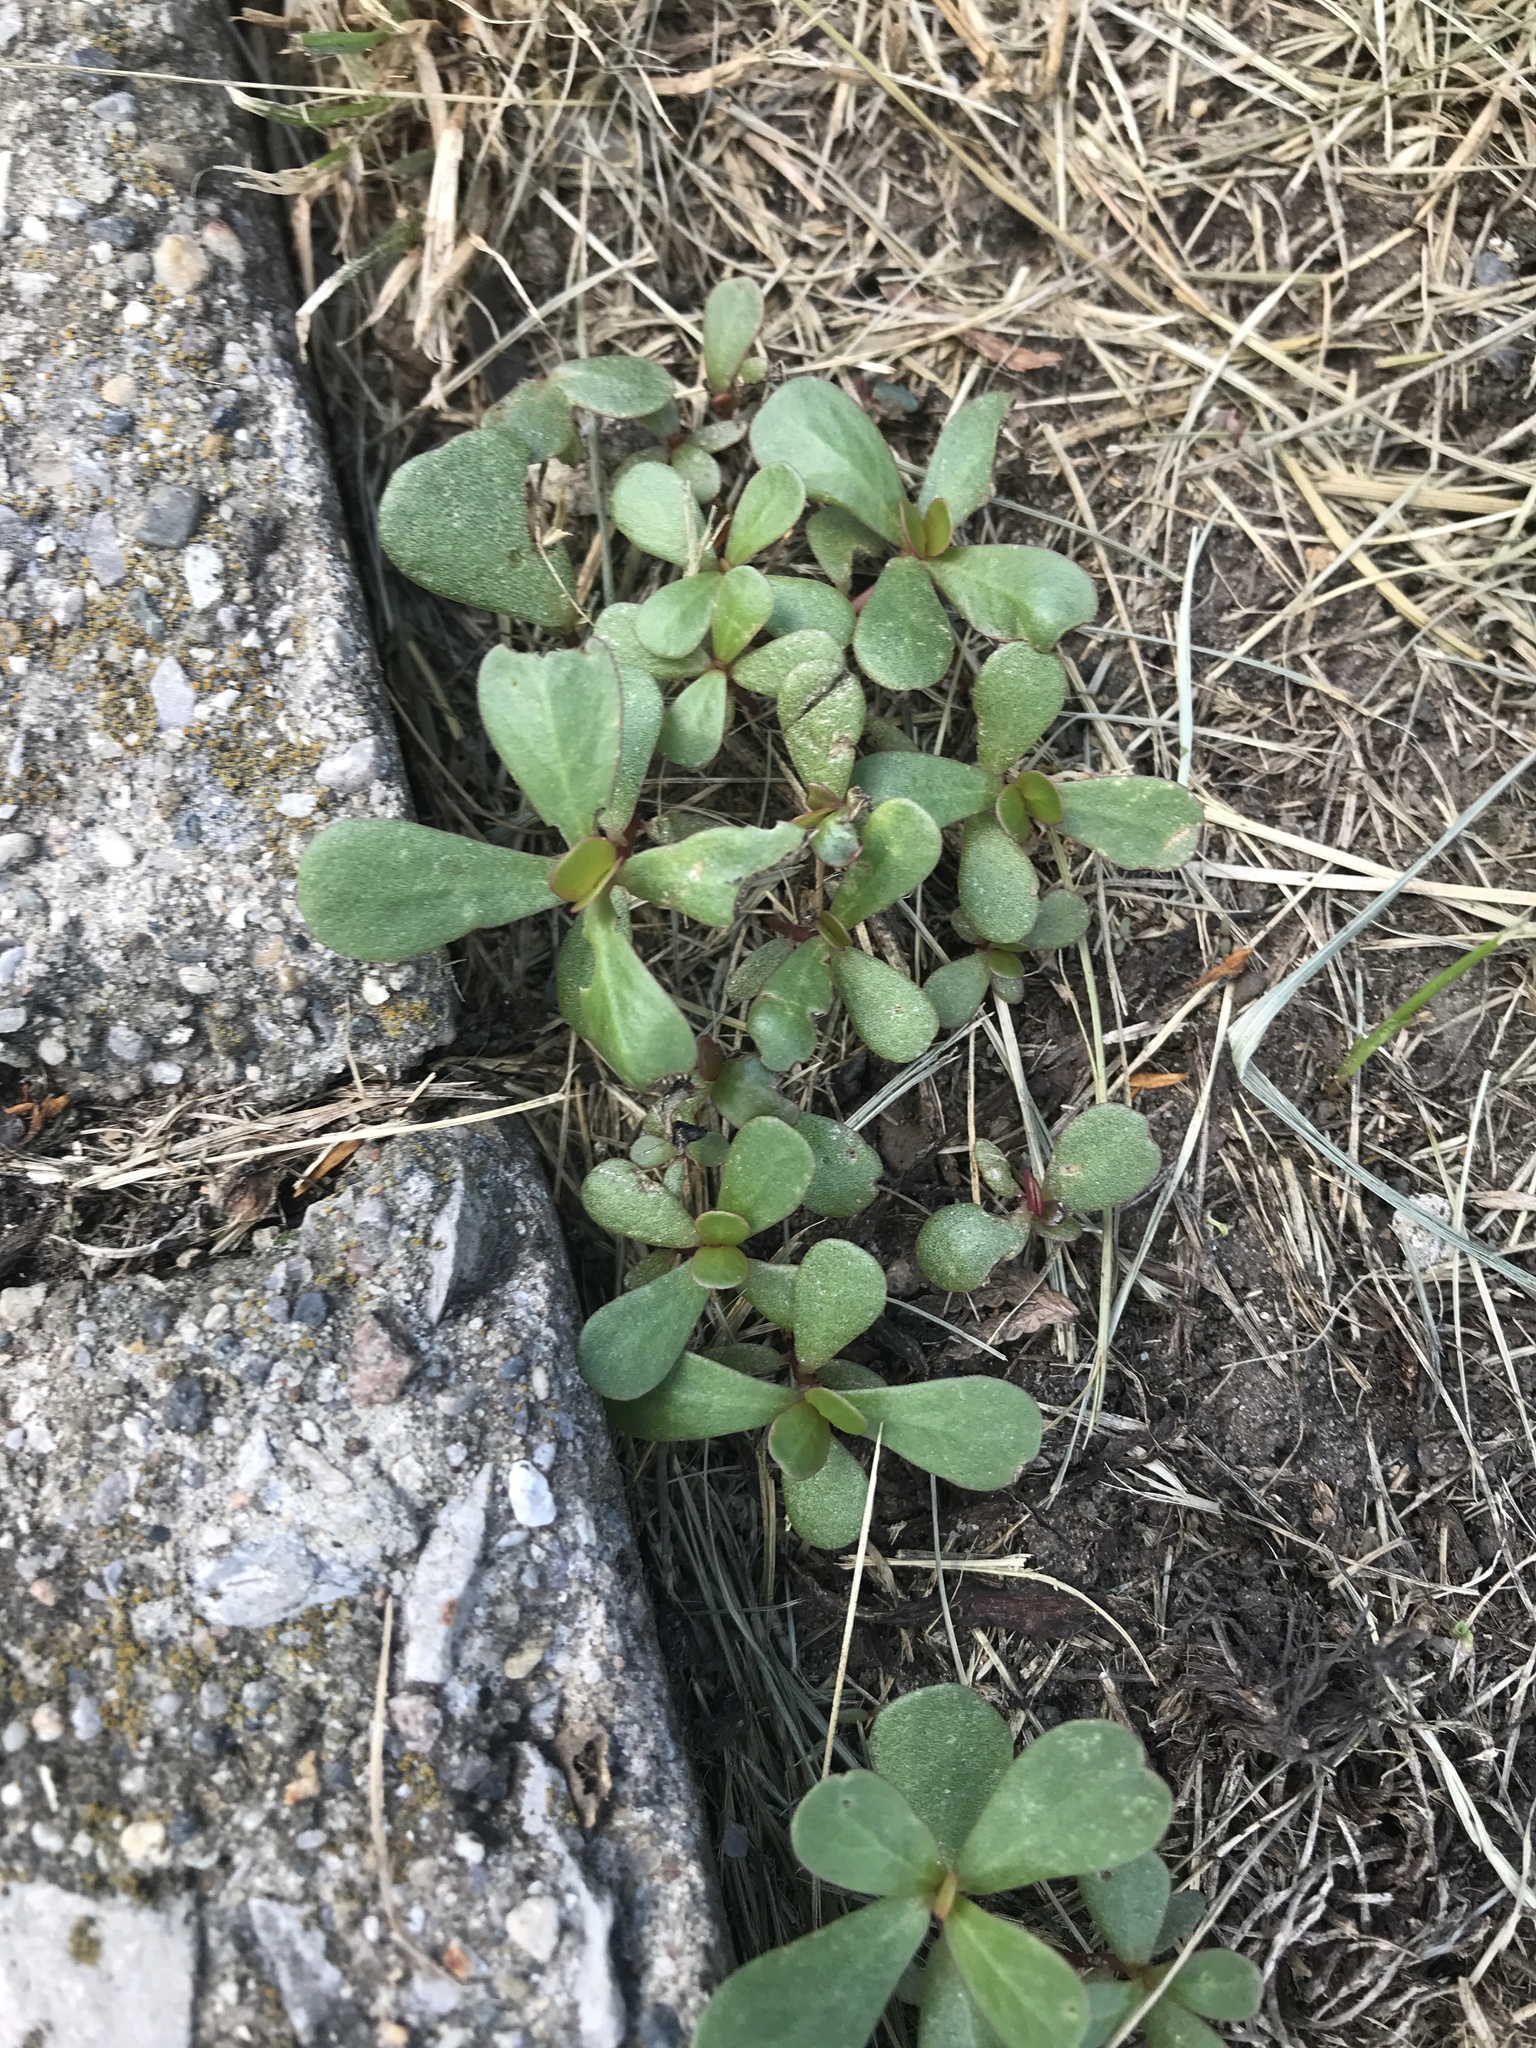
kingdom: Plantae
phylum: Tracheophyta
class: Magnoliopsida
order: Caryophyllales
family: Portulacaceae
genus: Portulaca
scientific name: Portulaca oleracea
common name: Common purslane
